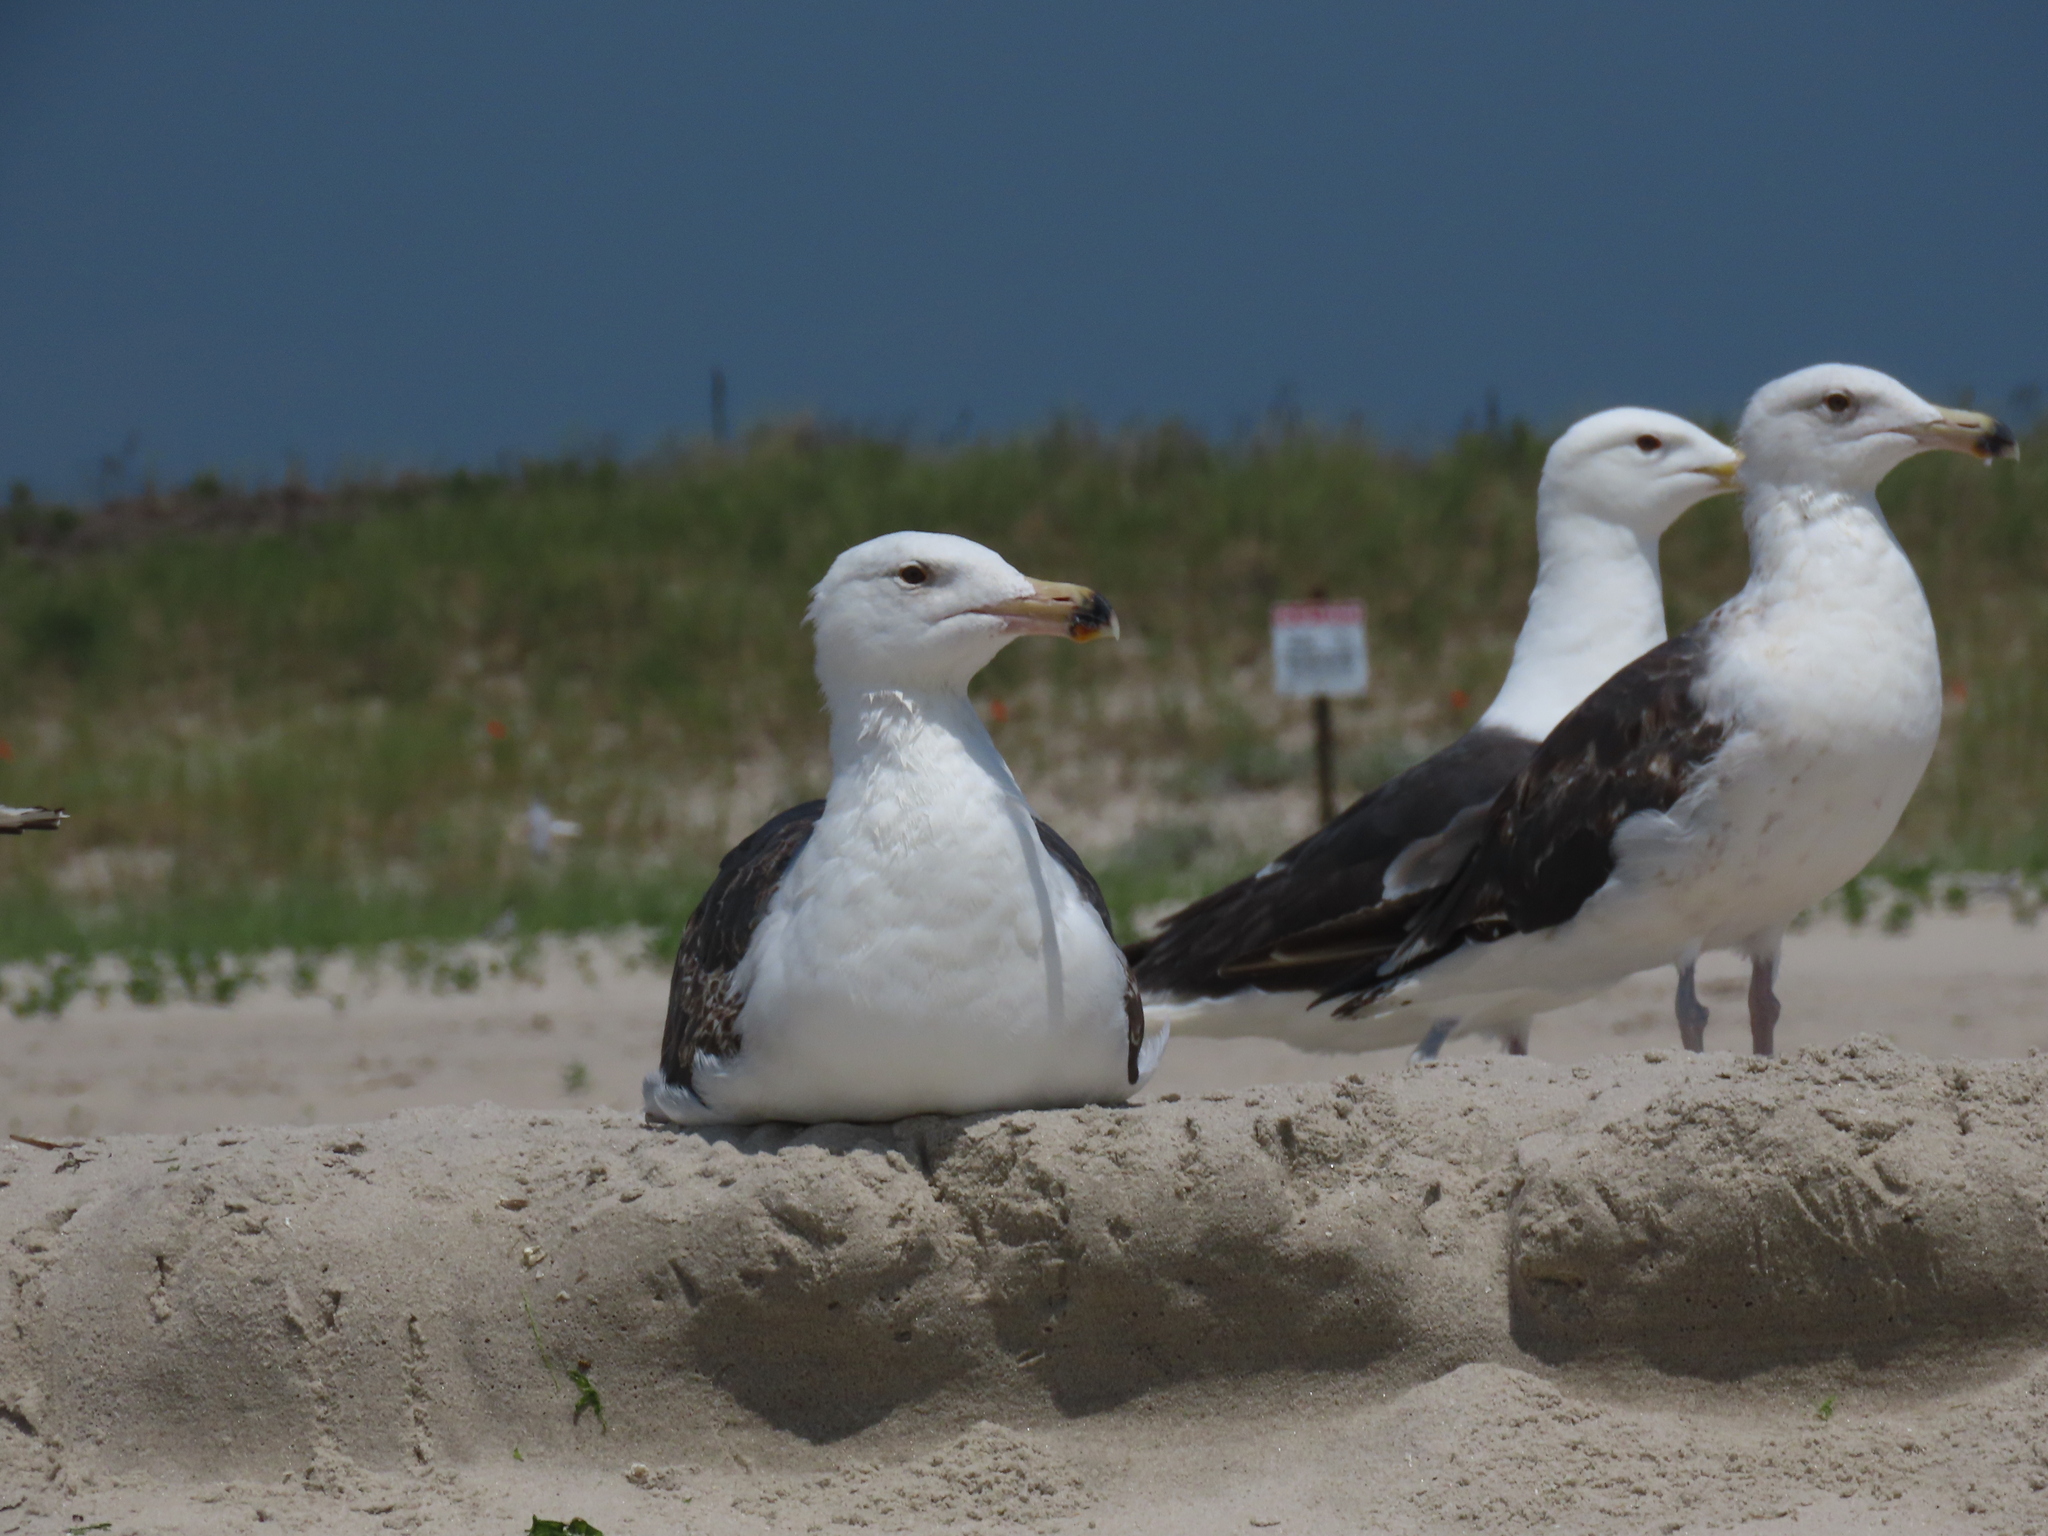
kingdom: Animalia
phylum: Chordata
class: Aves
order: Charadriiformes
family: Laridae
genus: Larus
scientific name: Larus marinus
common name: Great black-backed gull
